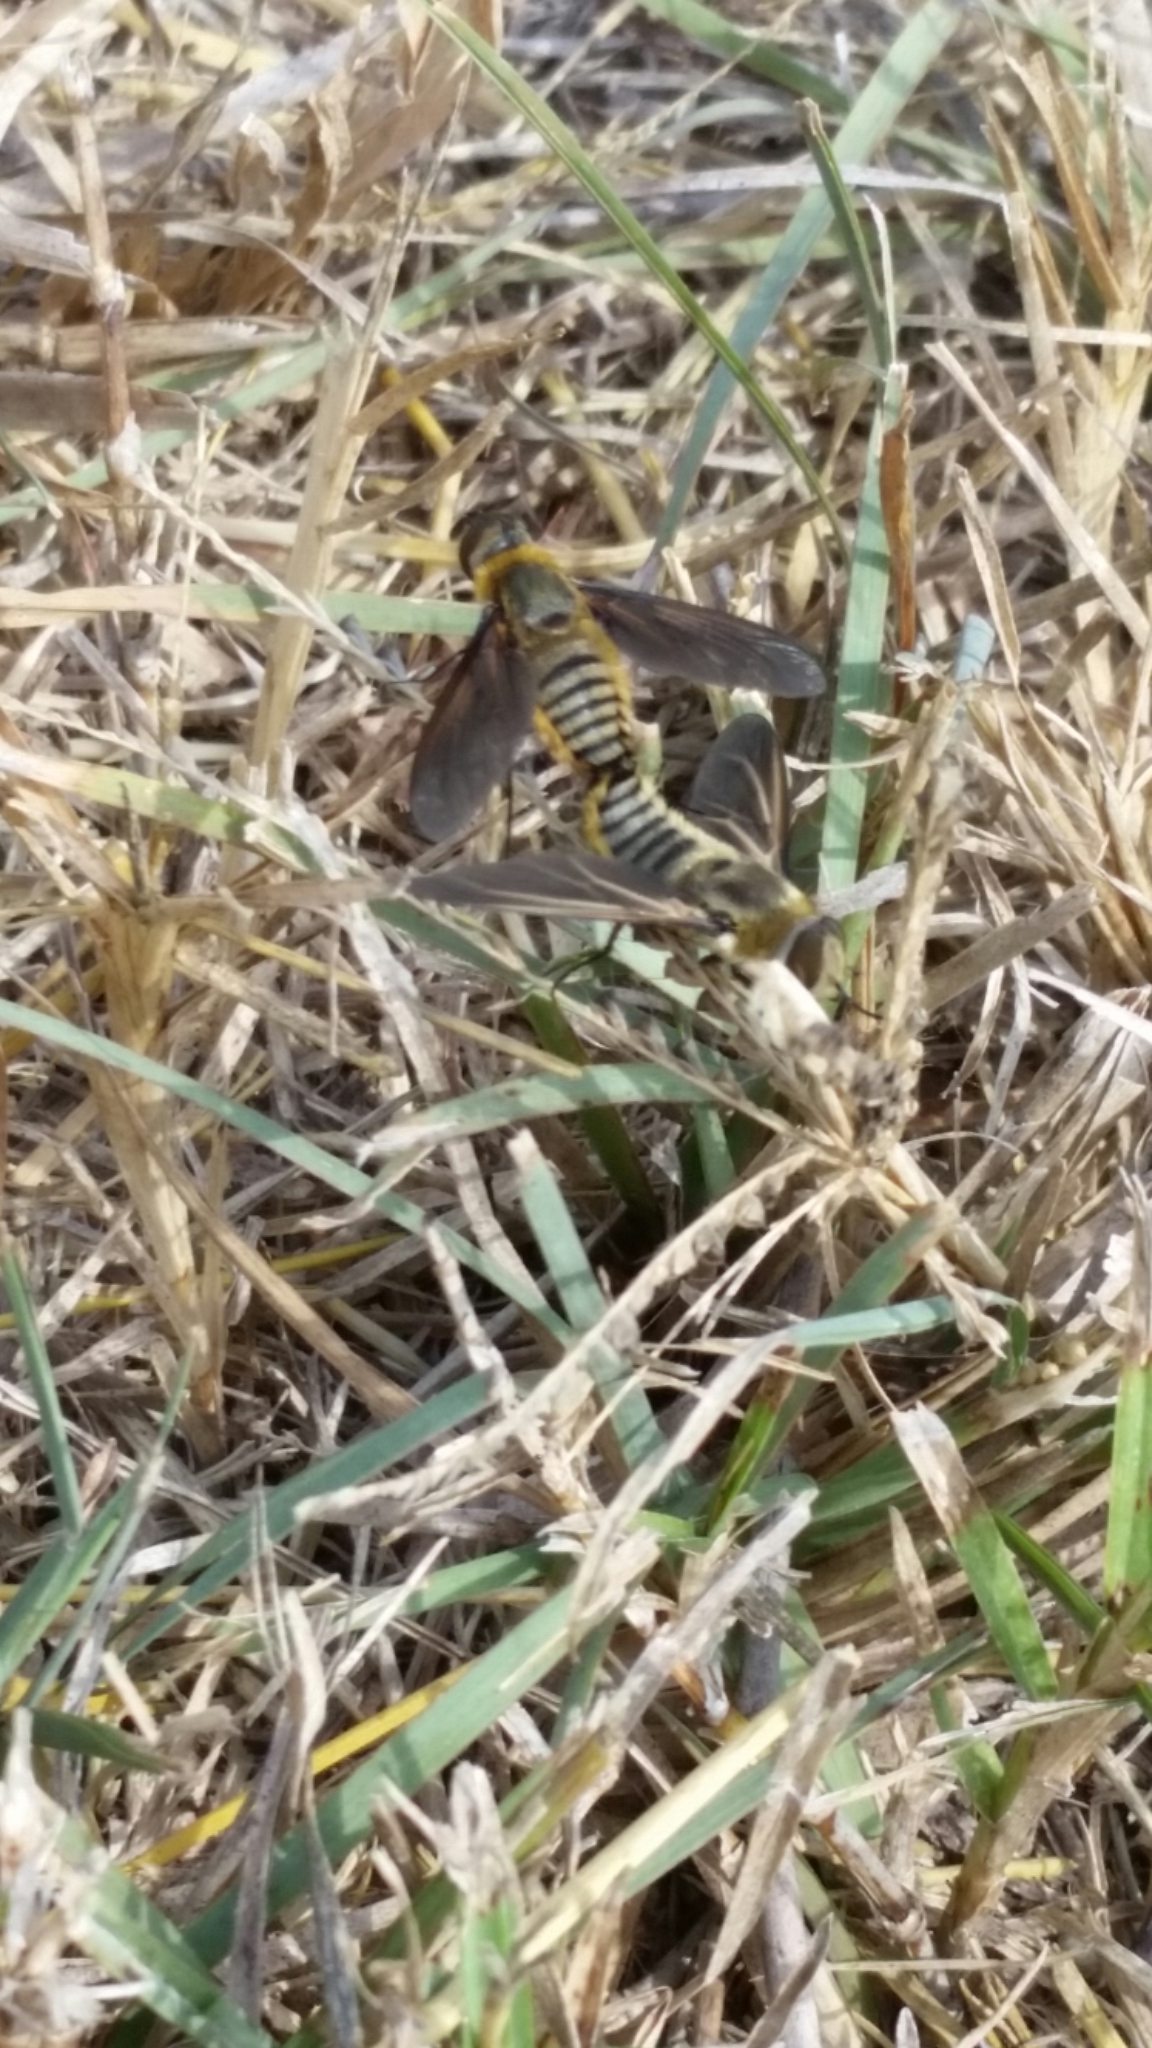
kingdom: Animalia
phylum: Arthropoda
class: Insecta
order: Diptera
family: Bombyliidae
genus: Poecilanthrax
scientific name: Poecilanthrax lucifer
